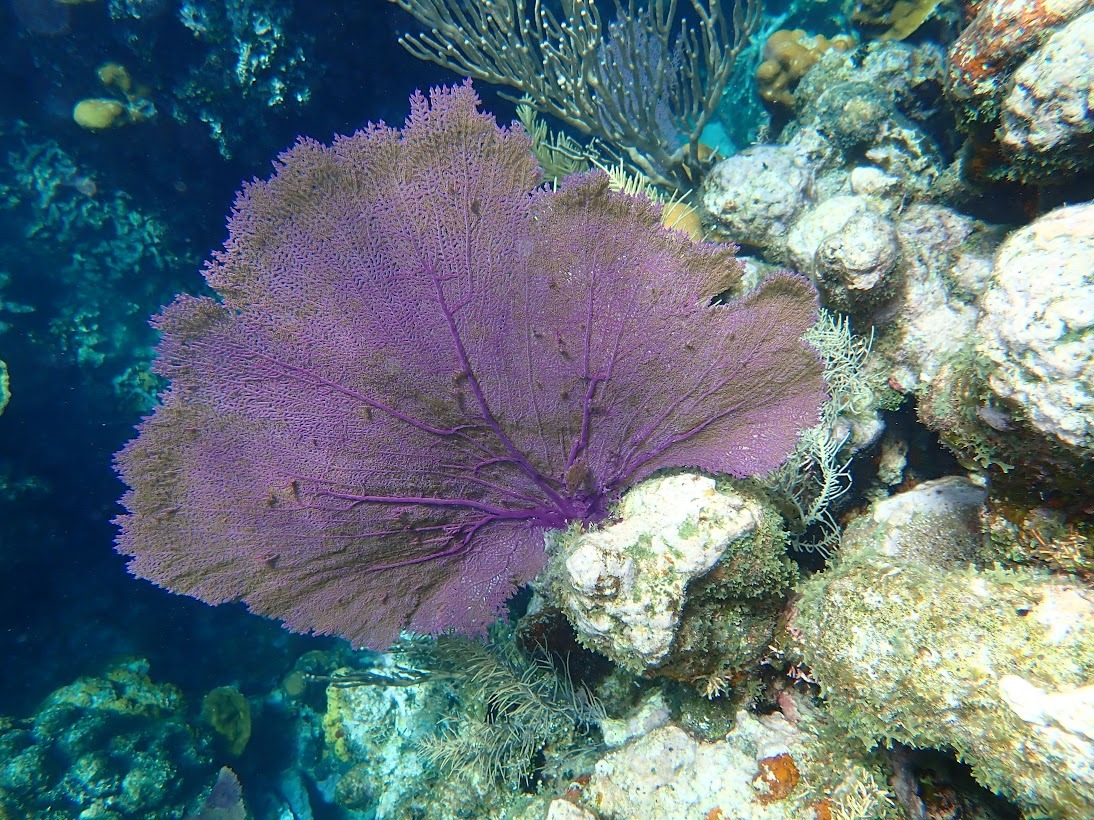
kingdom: Animalia
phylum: Cnidaria
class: Anthozoa
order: Malacalcyonacea
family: Gorgoniidae
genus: Gorgonia
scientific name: Gorgonia ventalina
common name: Common sea fan
